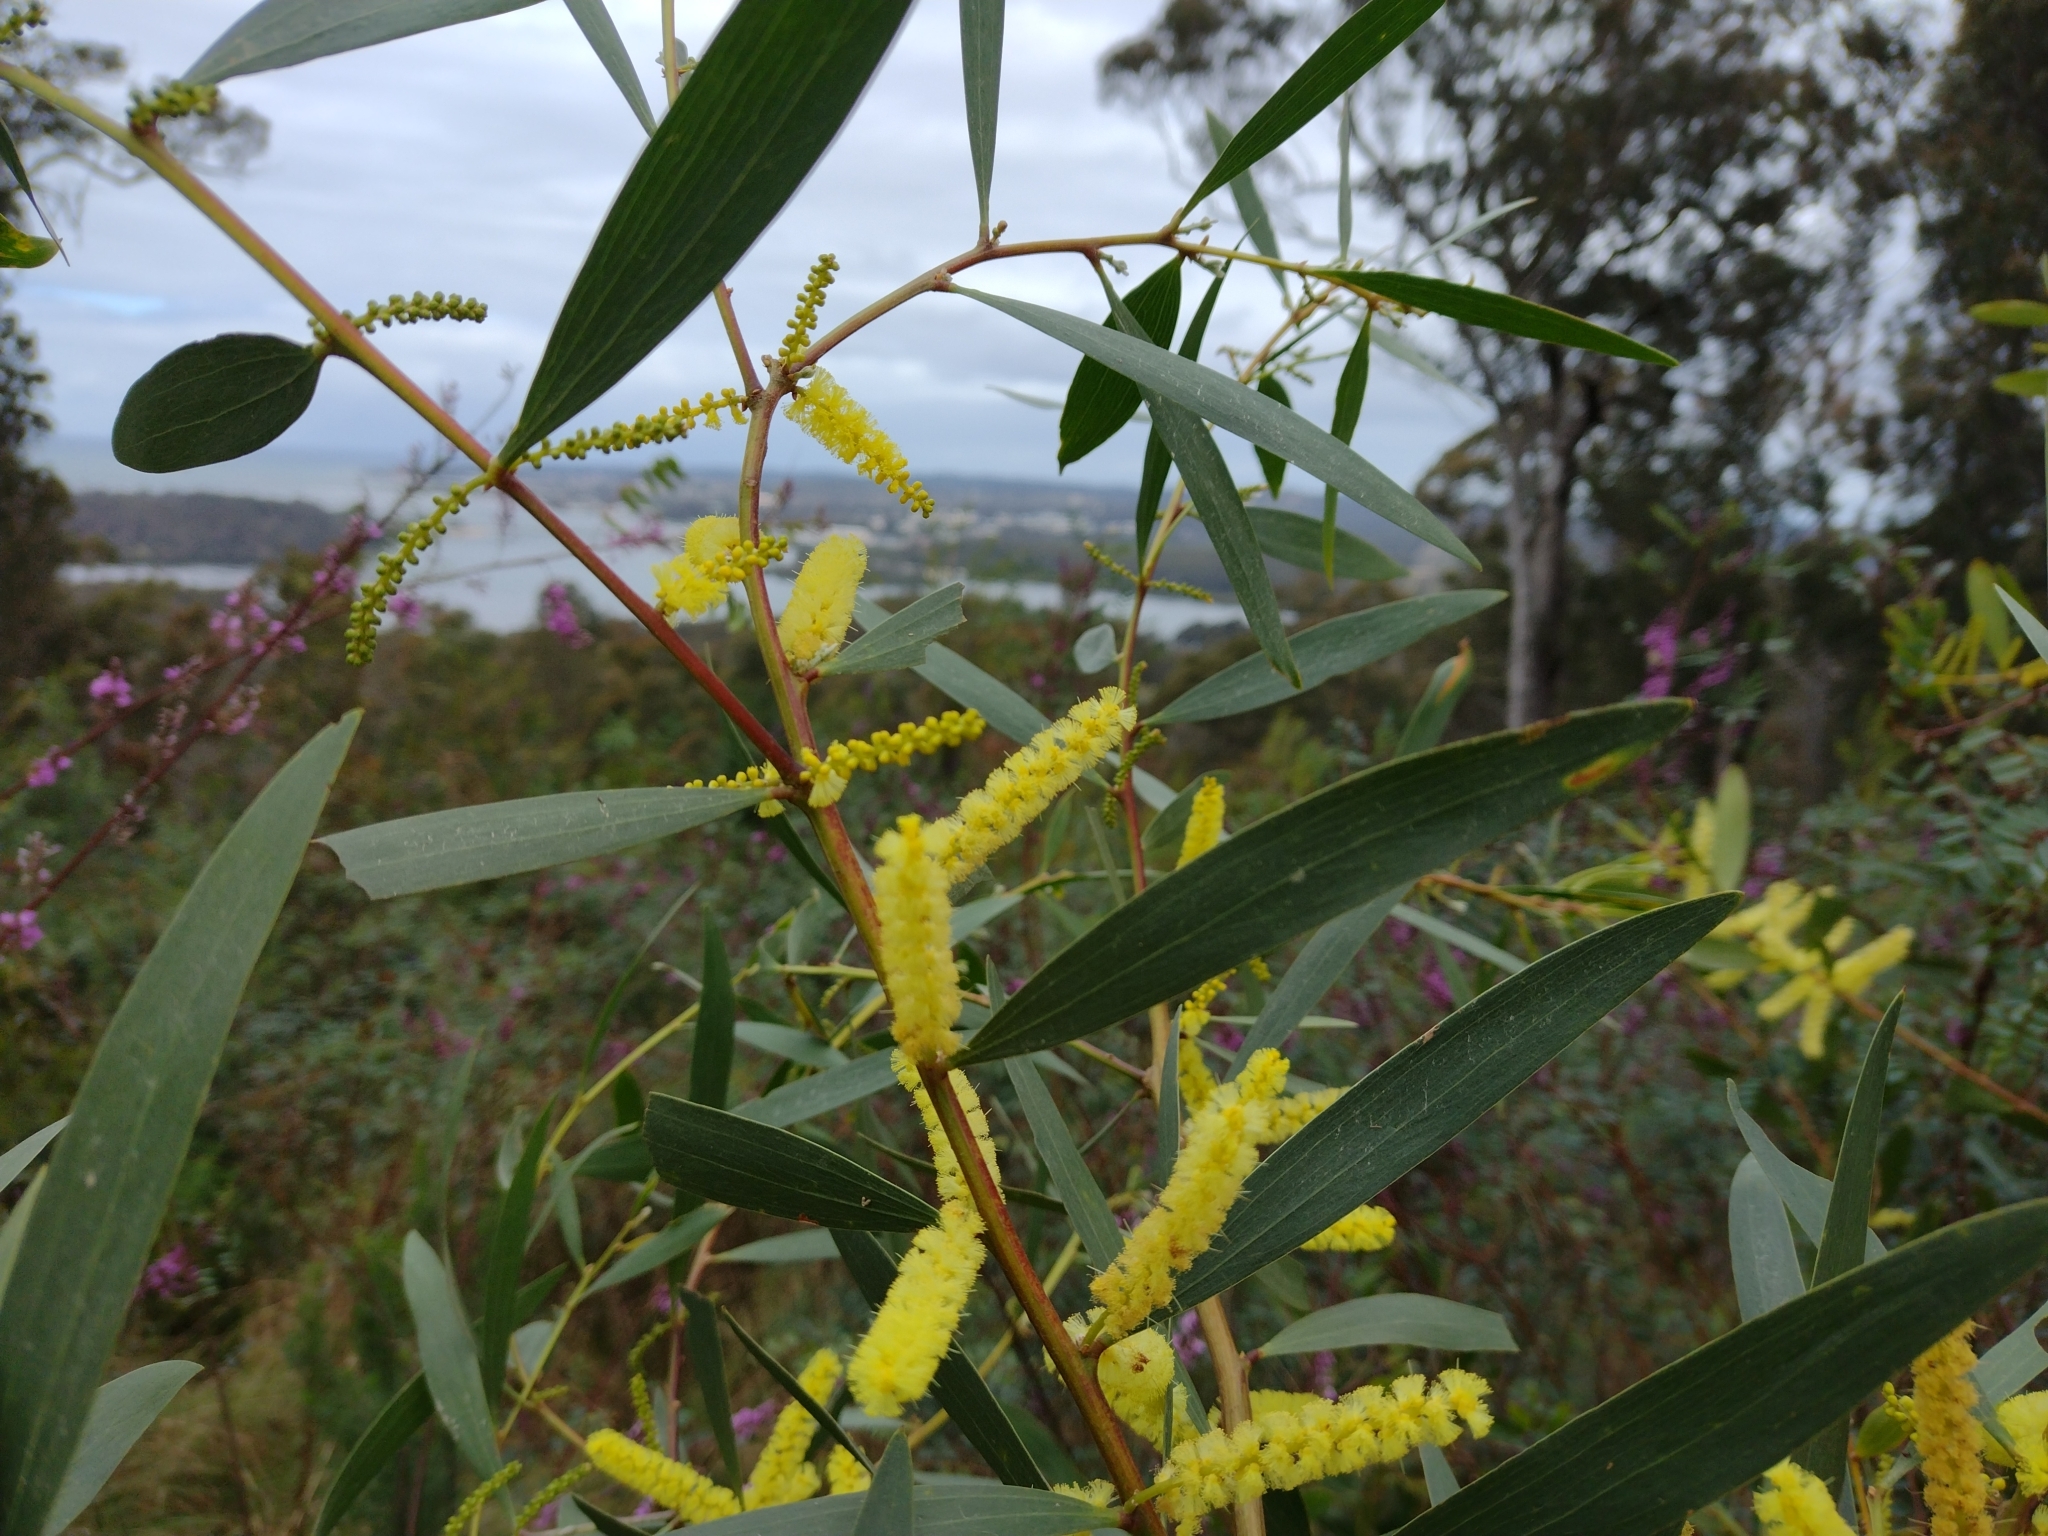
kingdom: Plantae
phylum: Tracheophyta
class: Magnoliopsida
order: Fabales
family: Fabaceae
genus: Acacia
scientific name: Acacia longifolia
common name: Sydney golden wattle
